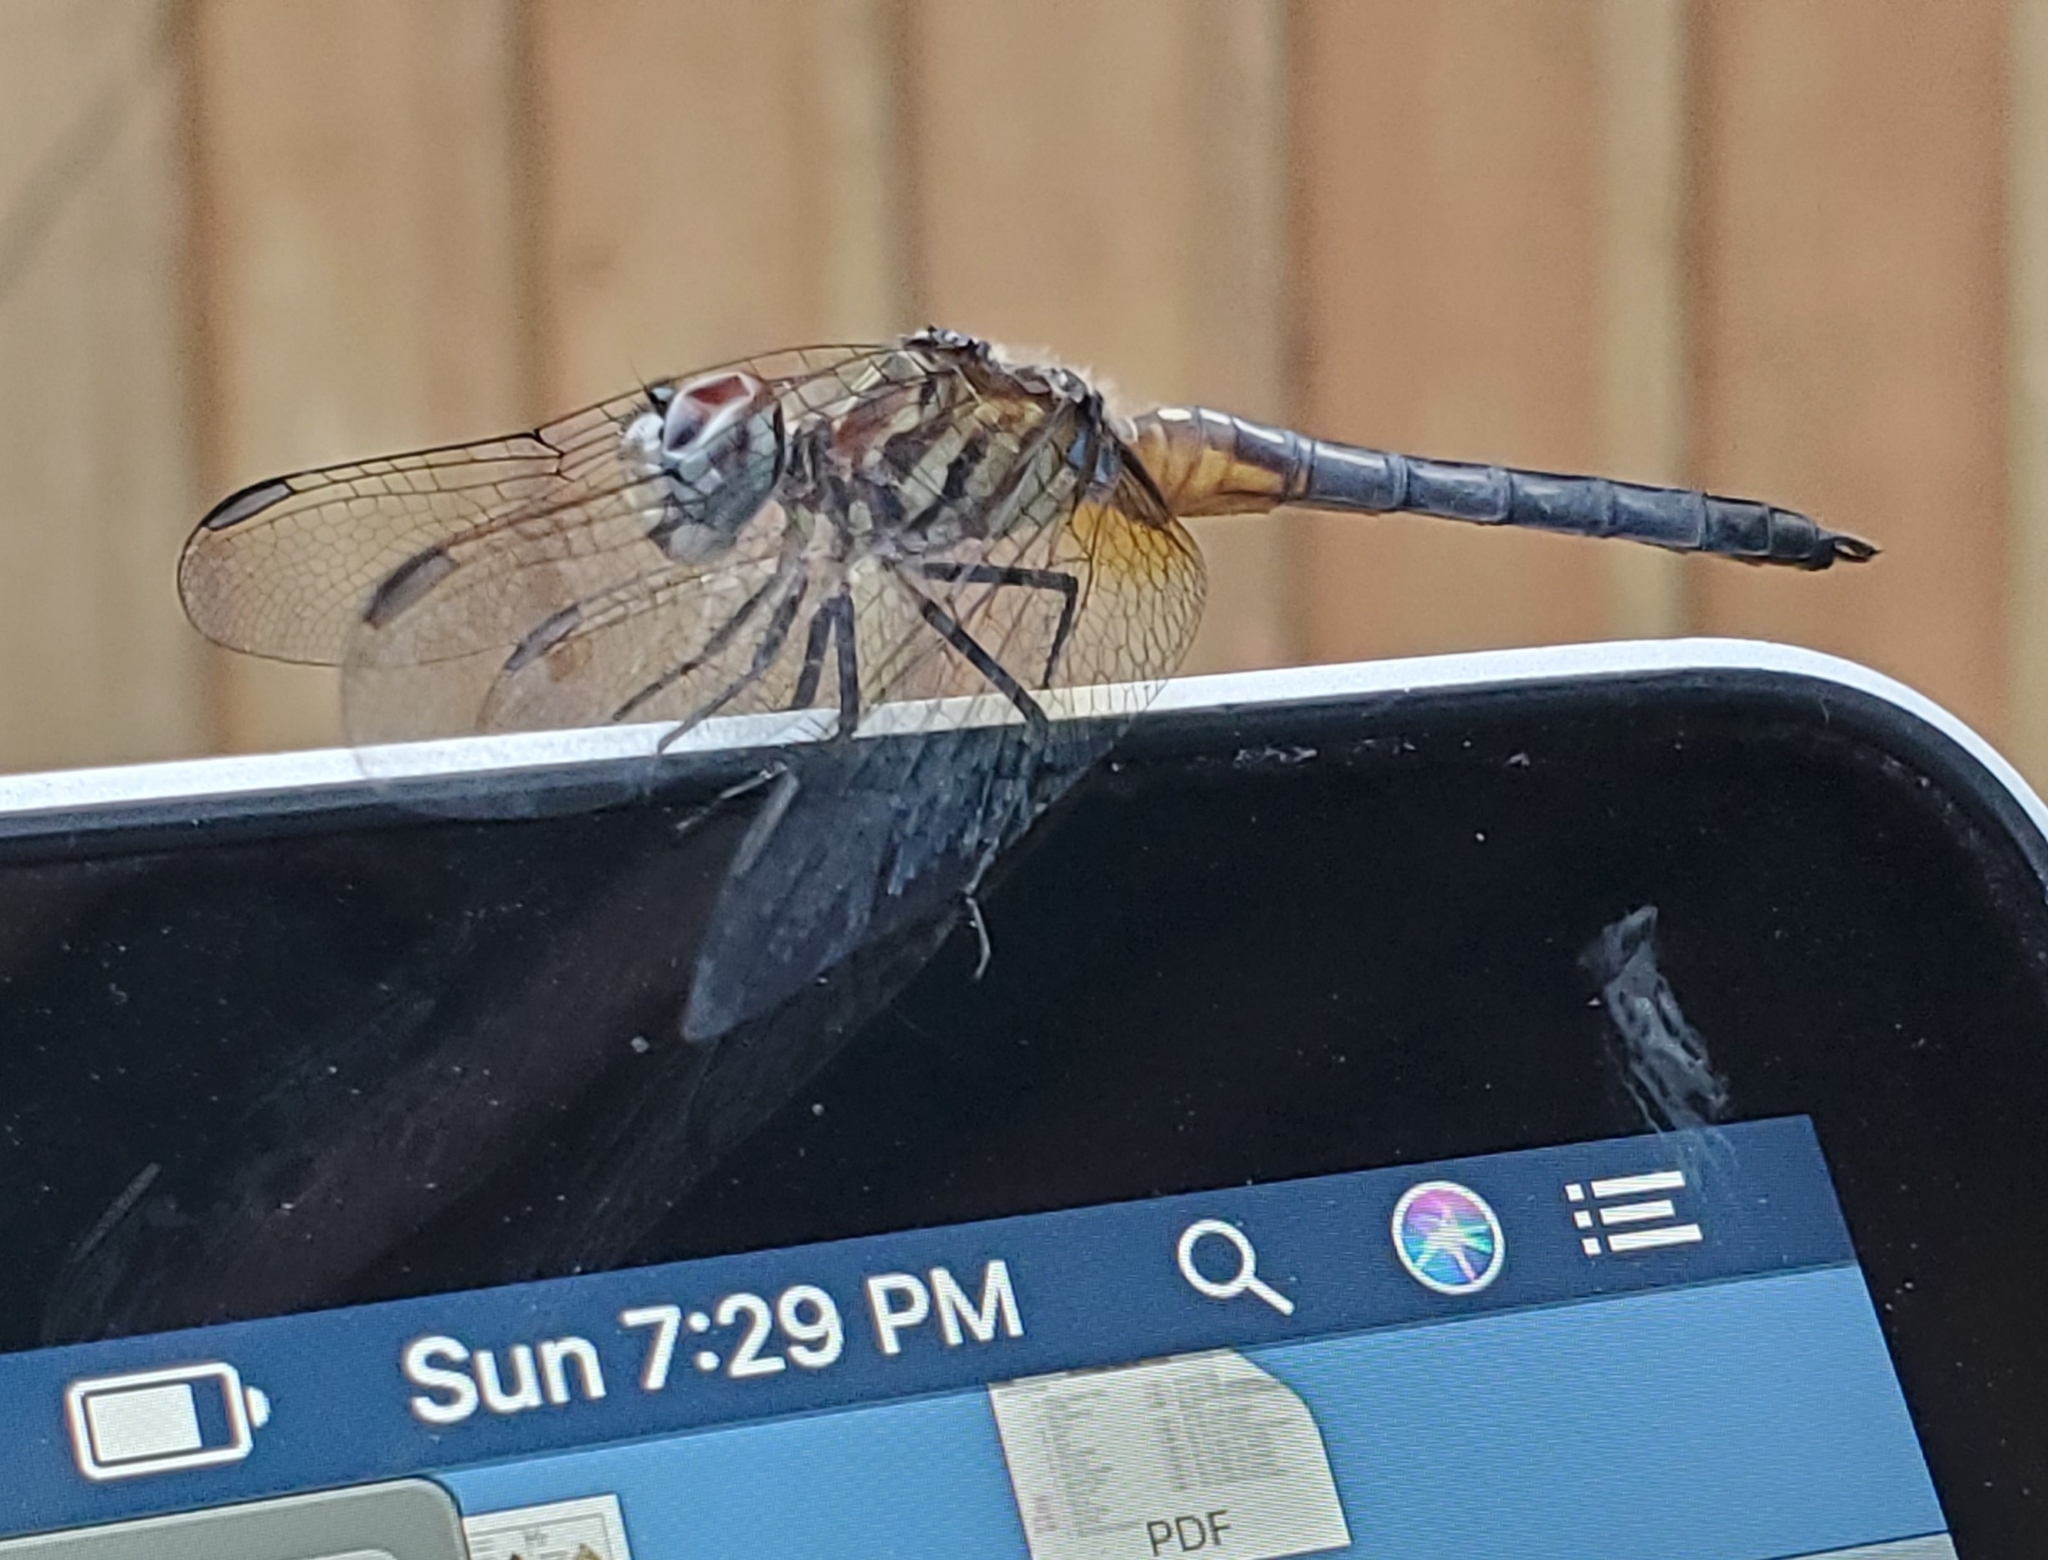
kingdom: Animalia
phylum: Arthropoda
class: Insecta
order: Odonata
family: Libellulidae
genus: Pachydiplax
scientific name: Pachydiplax longipennis
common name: Blue dasher
